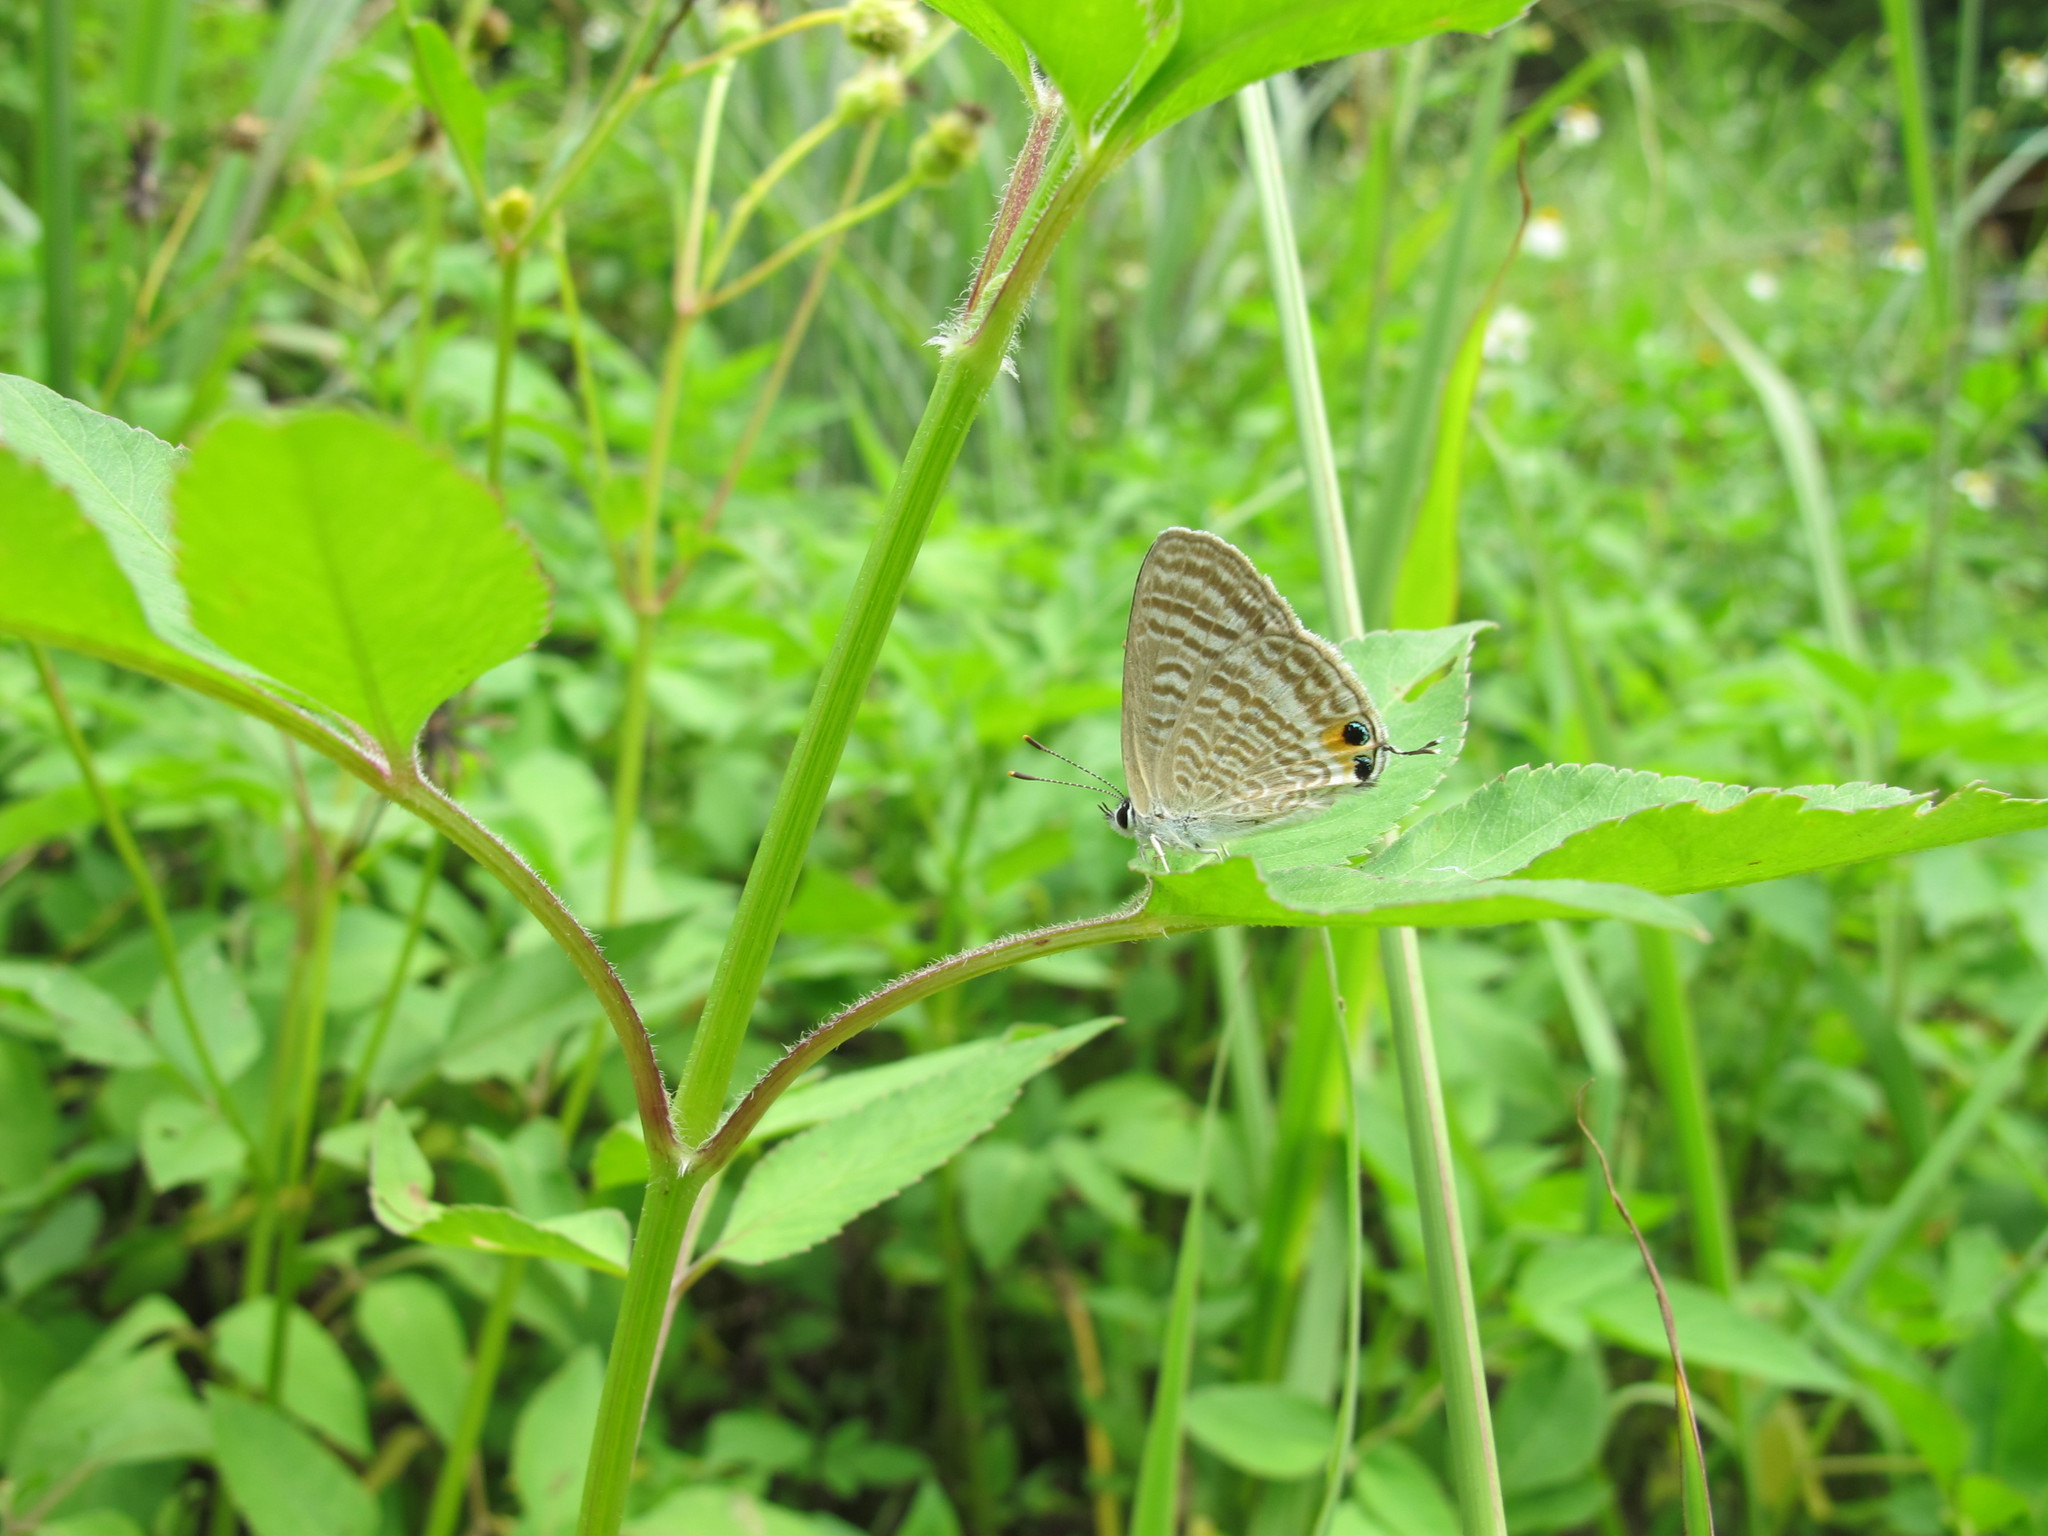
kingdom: Animalia
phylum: Arthropoda
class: Insecta
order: Lepidoptera
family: Lycaenidae
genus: Lampides
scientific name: Lampides boeticus
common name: Long-tailed blue
